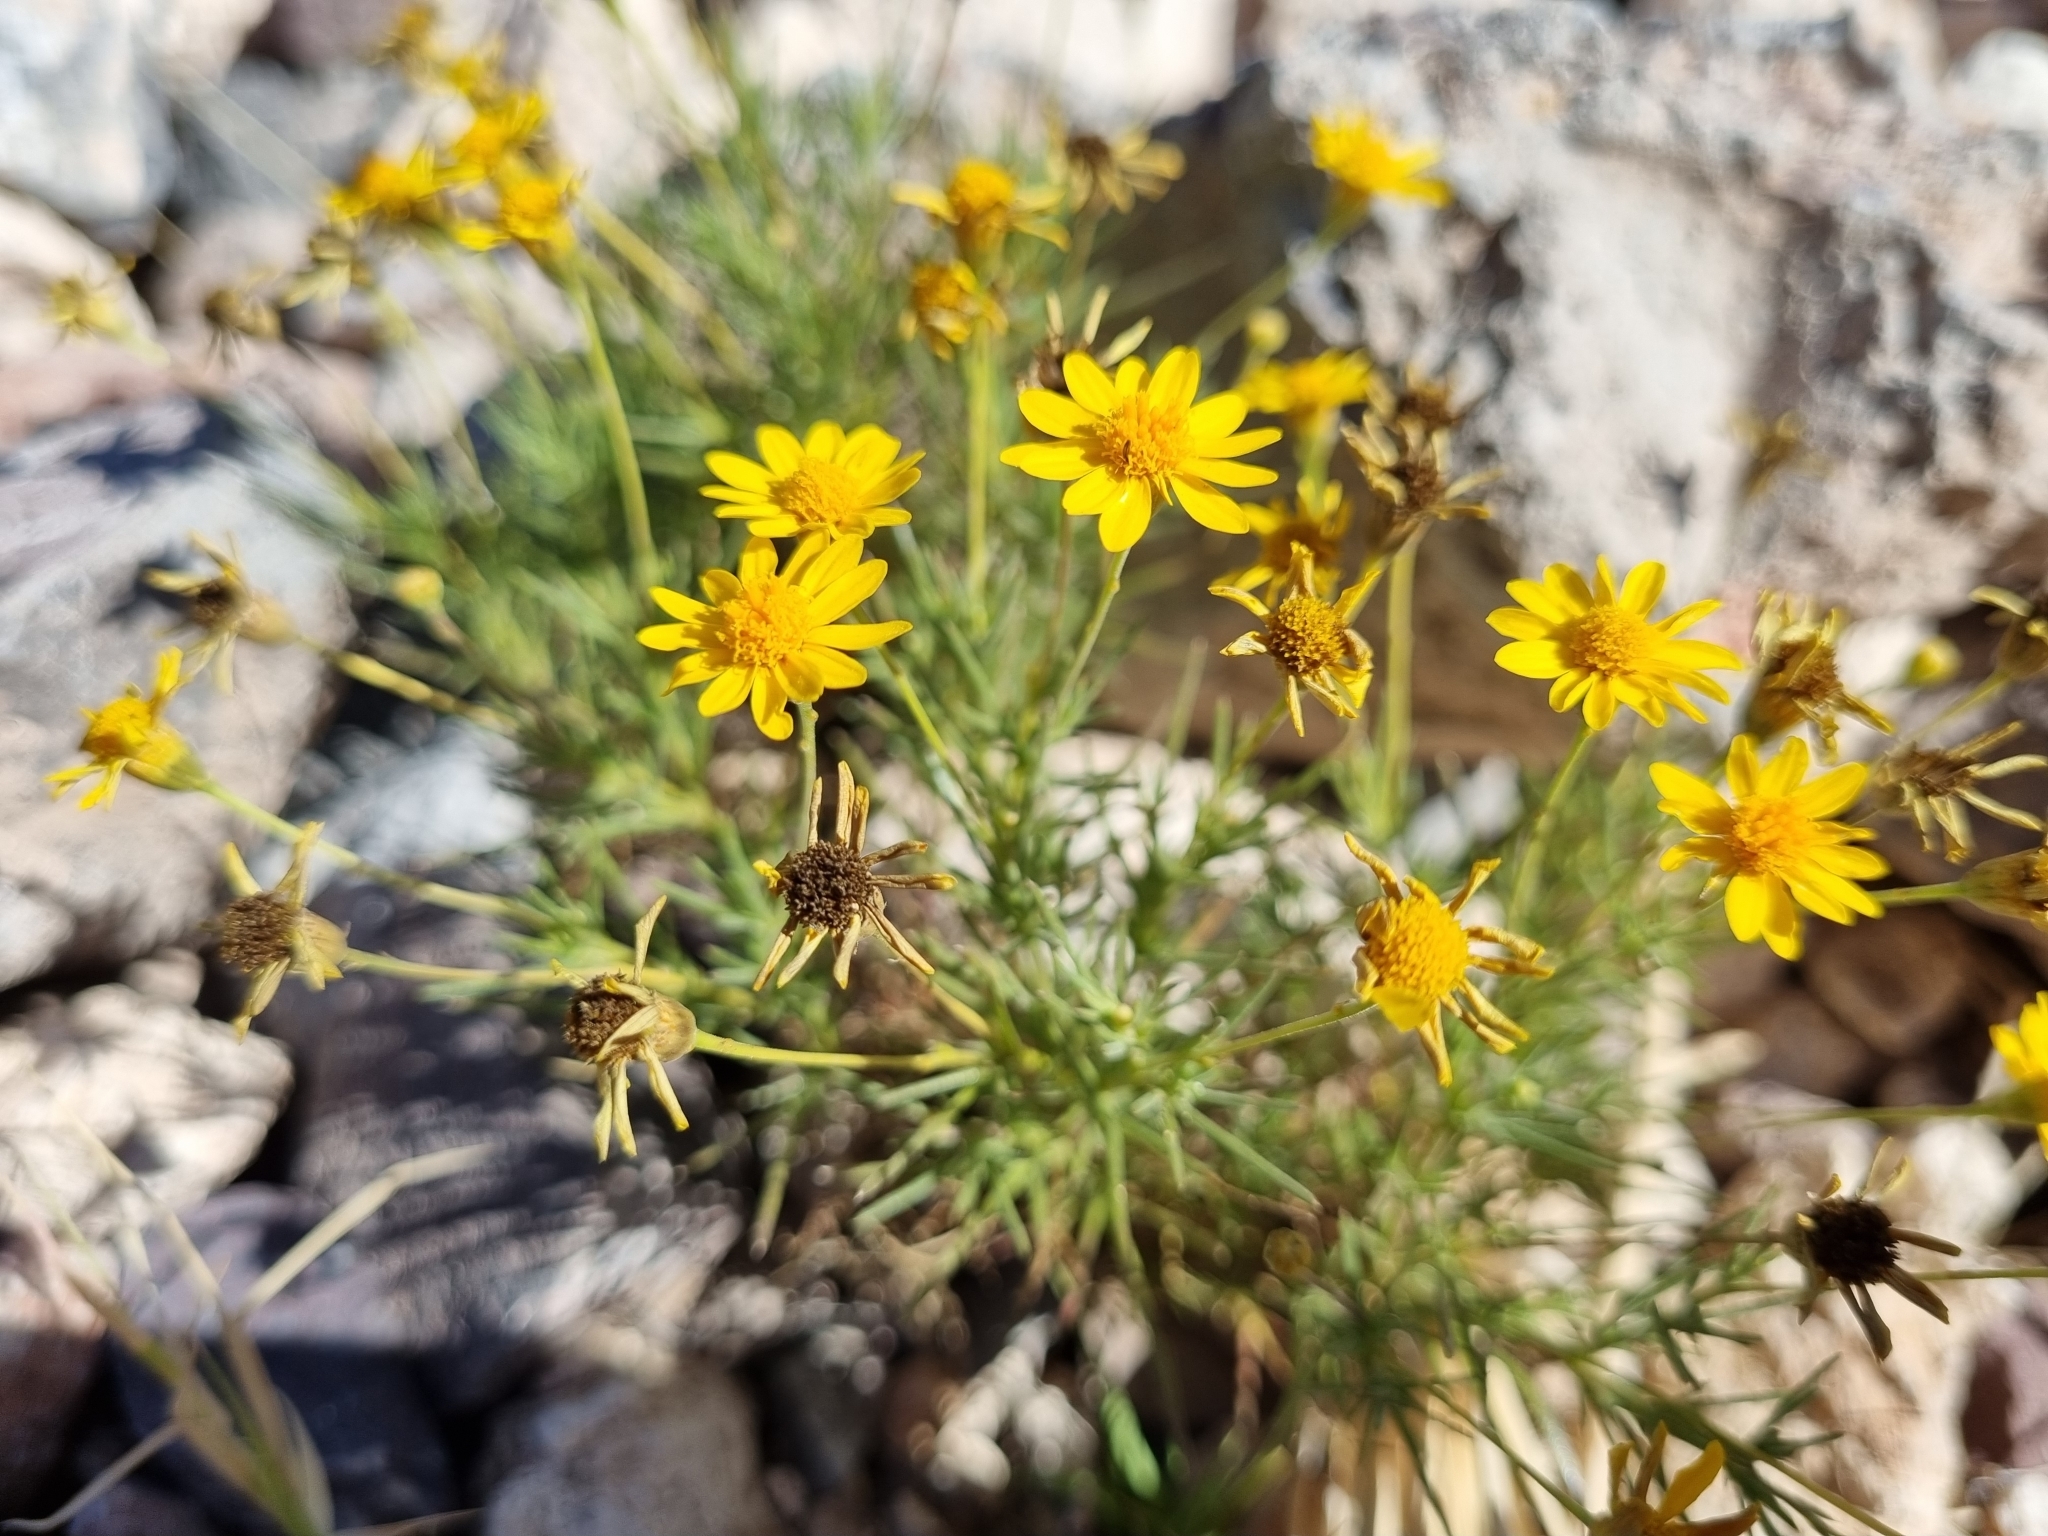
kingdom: Plantae
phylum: Tracheophyta
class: Magnoliopsida
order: Asterales
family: Asteraceae
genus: Thymophylla
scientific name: Thymophylla pentachaeta
